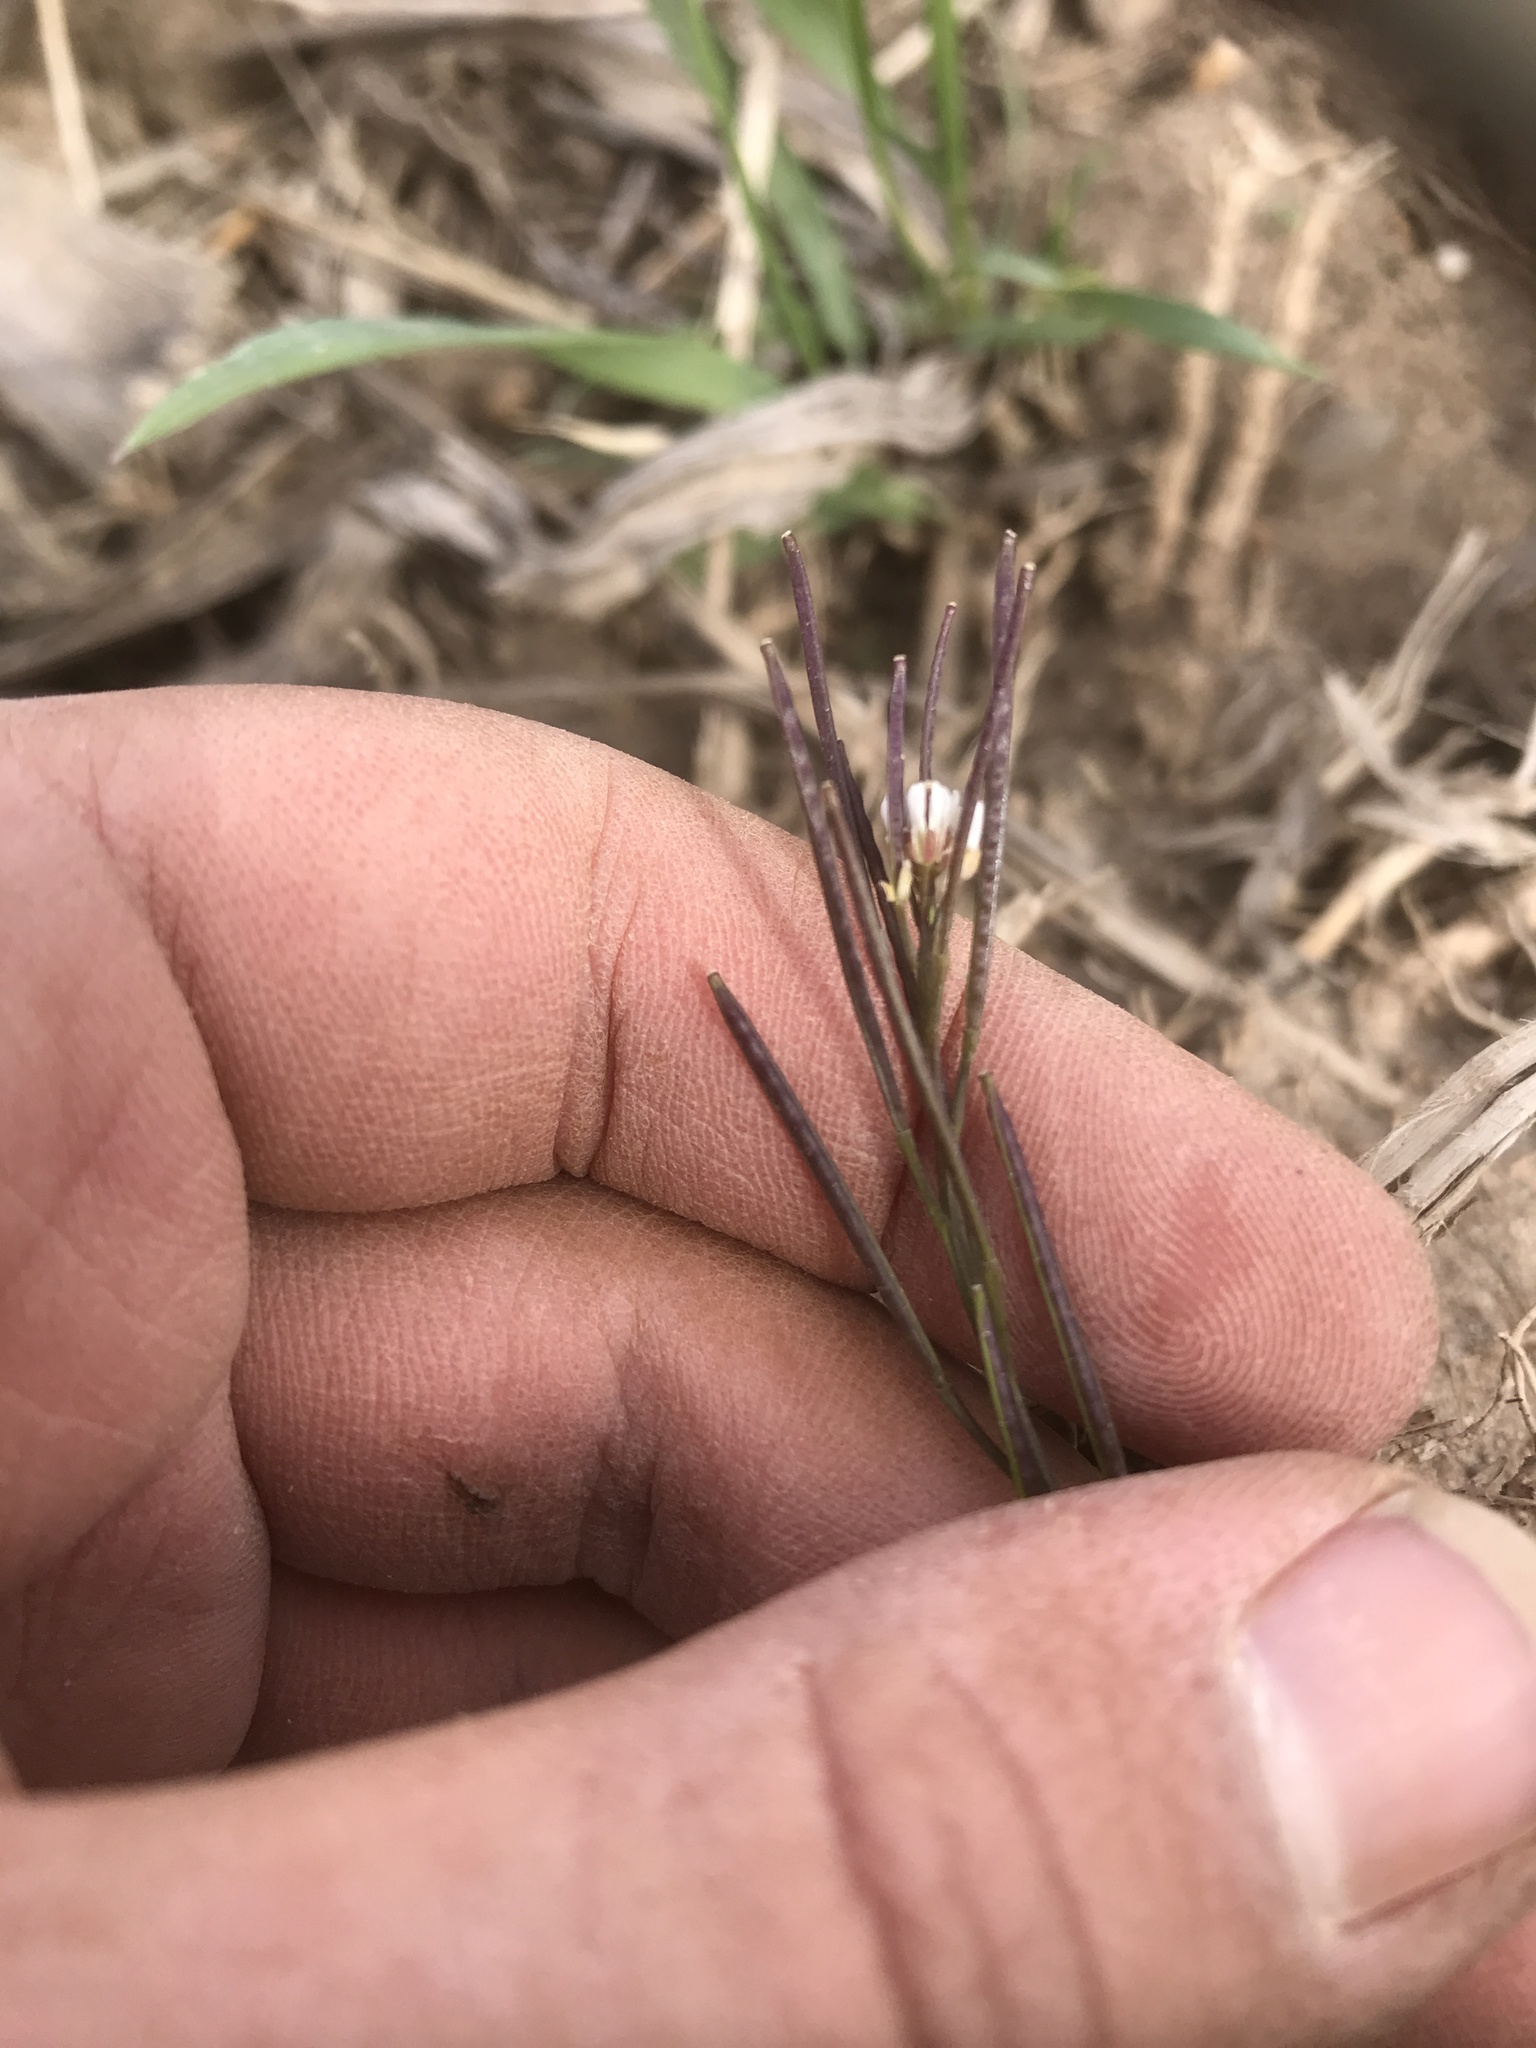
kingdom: Plantae
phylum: Tracheophyta
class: Magnoliopsida
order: Brassicales
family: Brassicaceae
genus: Cardamine
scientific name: Cardamine hirsuta
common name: Hairy bittercress
